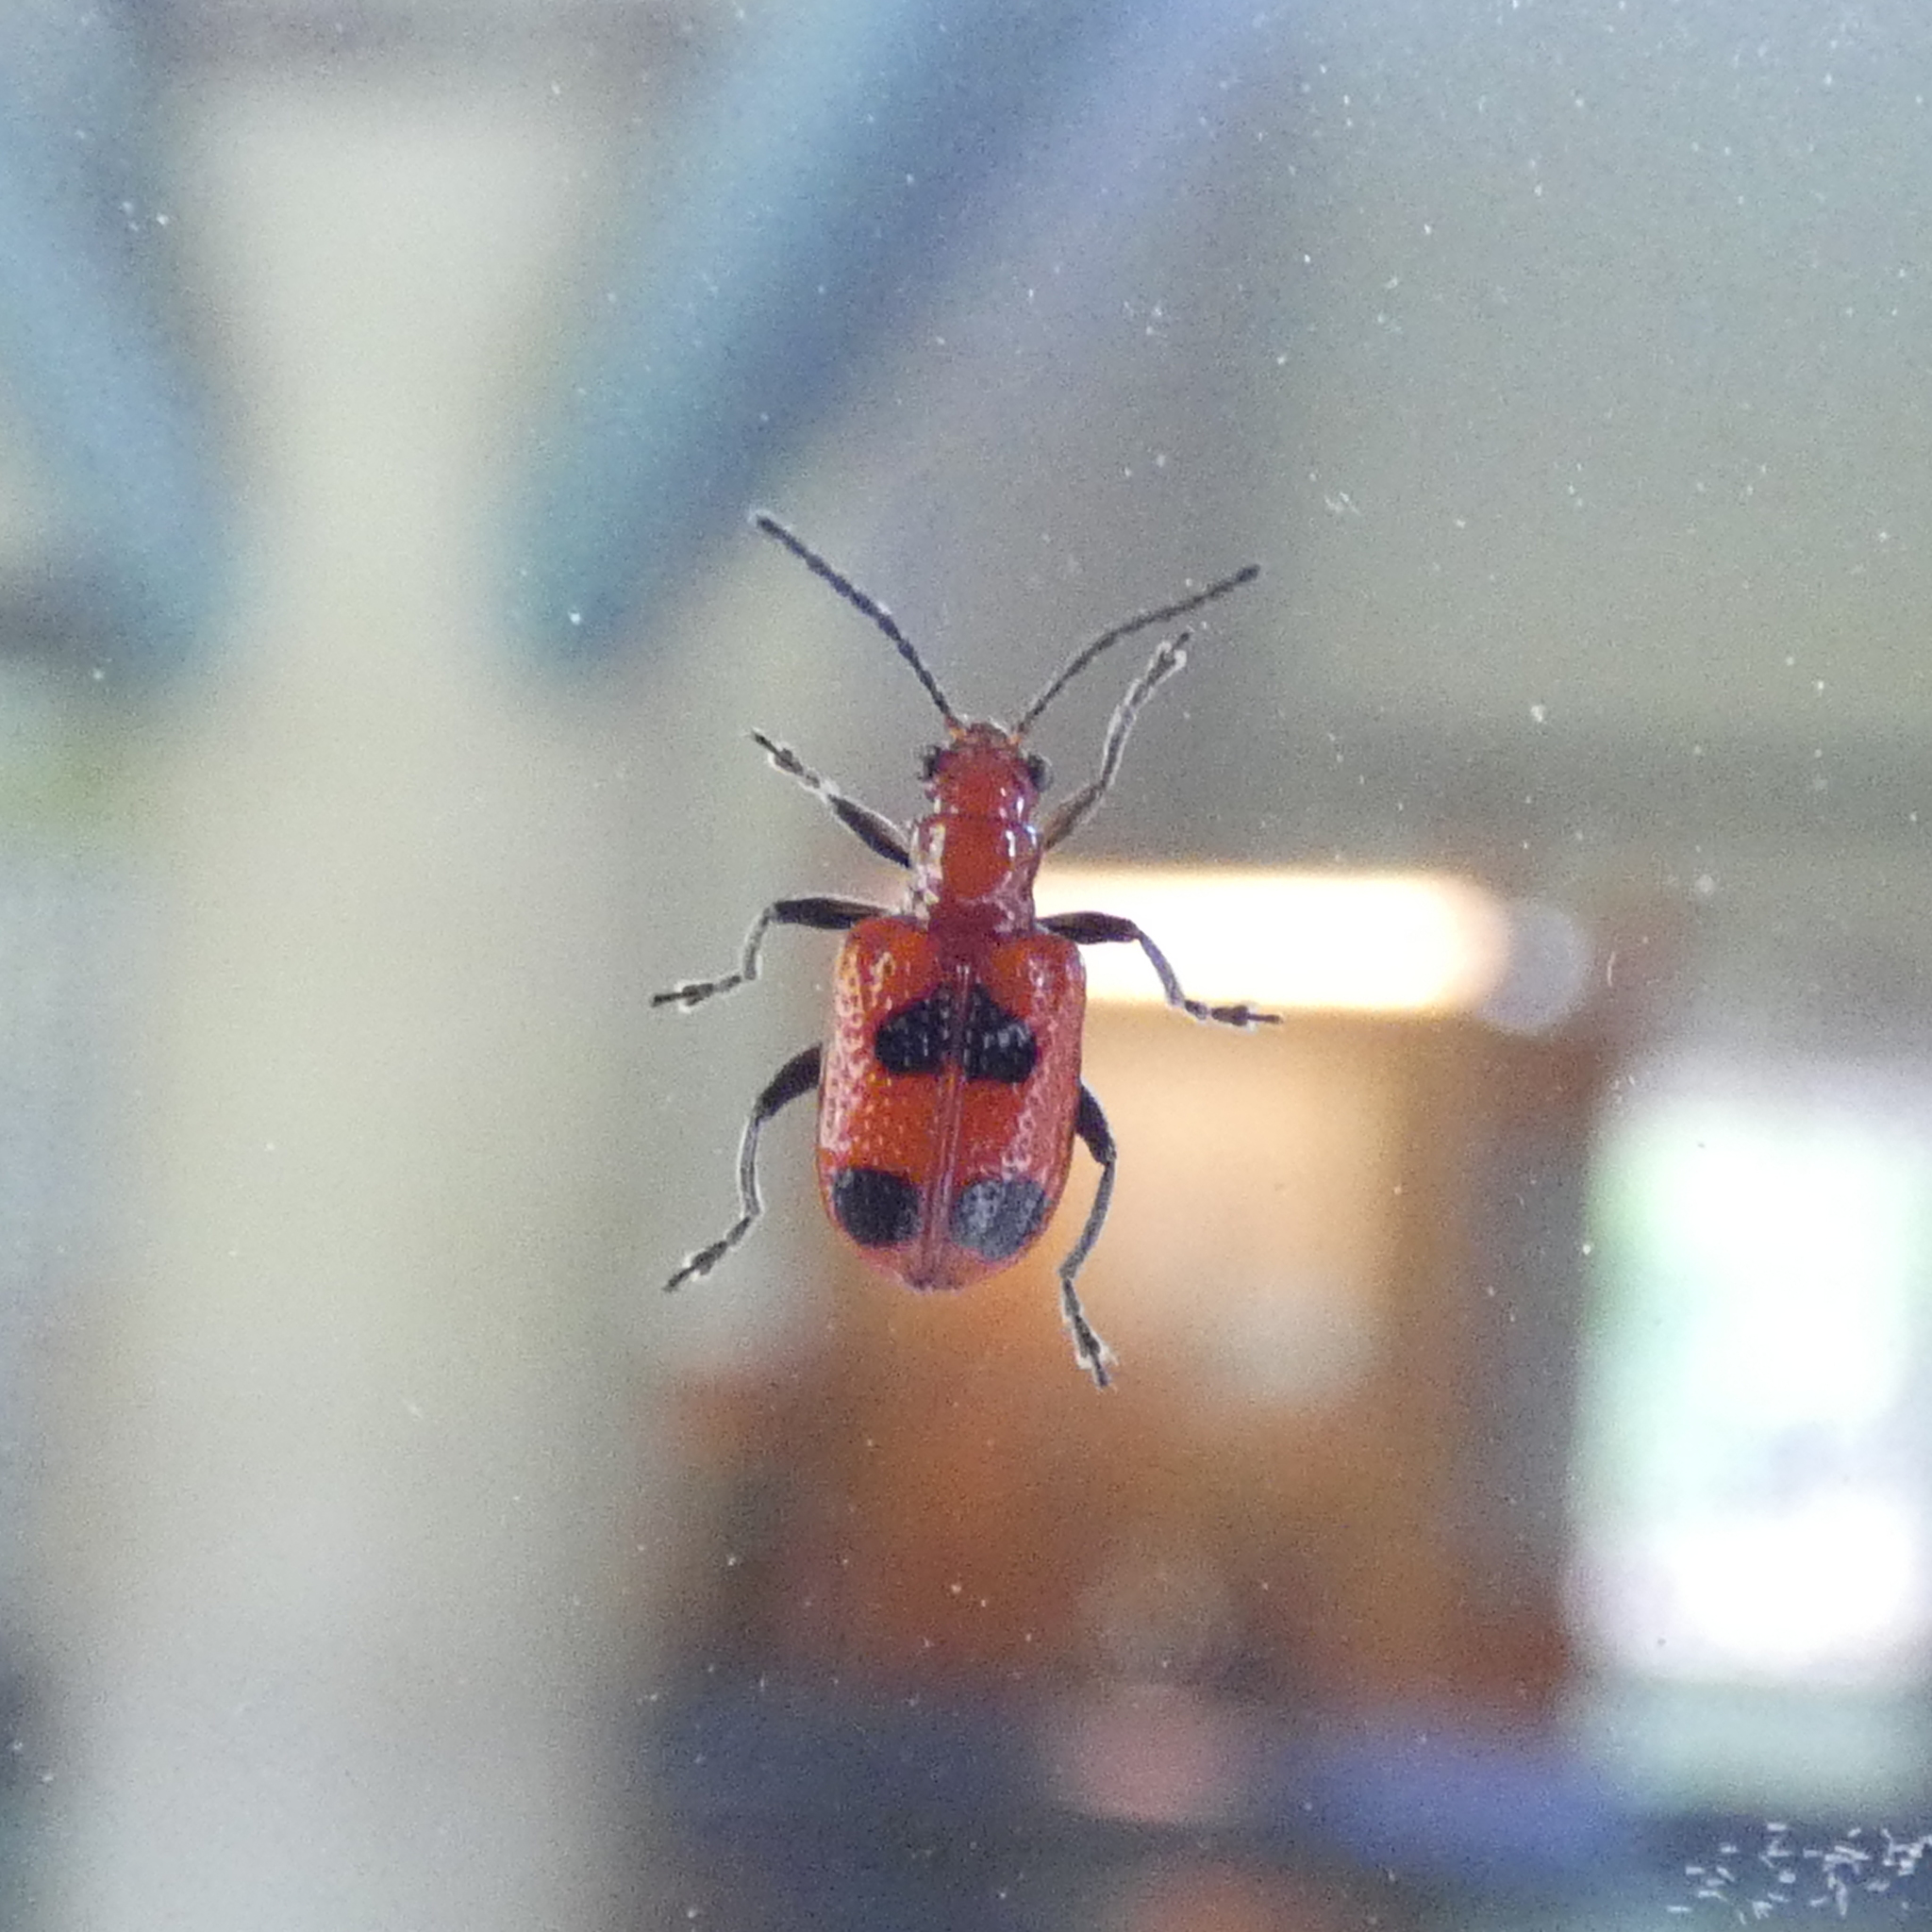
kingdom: Animalia
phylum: Arthropoda
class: Insecta
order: Coleoptera
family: Chrysomelidae
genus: Neolema
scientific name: Neolema cordata
